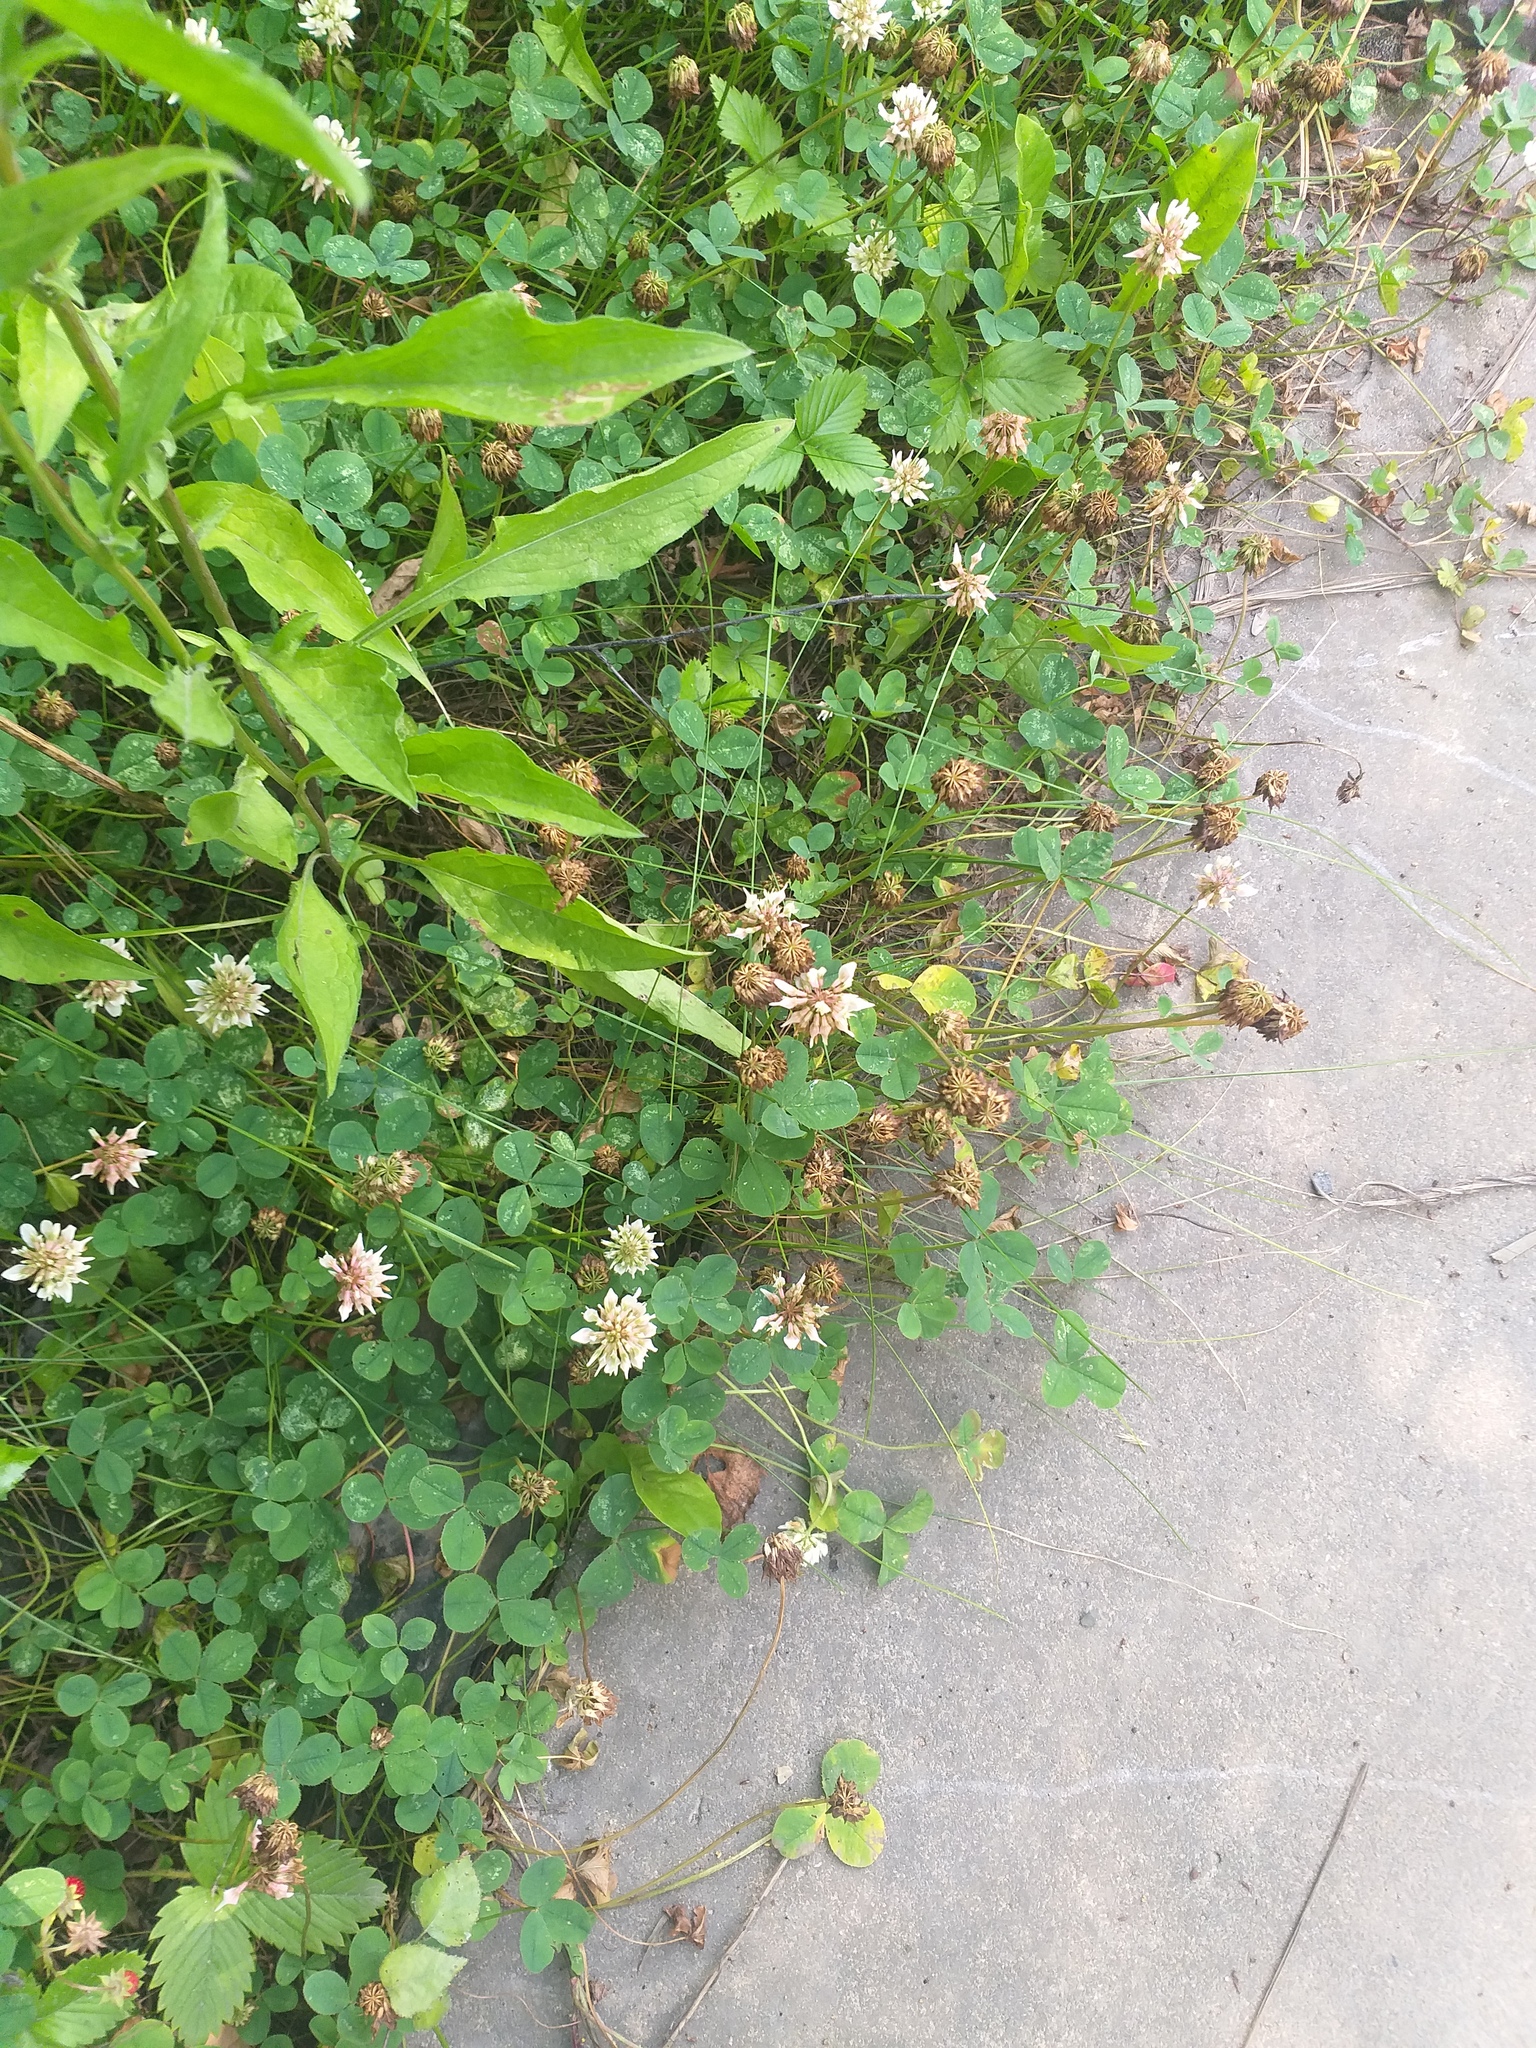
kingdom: Plantae
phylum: Tracheophyta
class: Magnoliopsida
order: Fabales
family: Fabaceae
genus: Trifolium
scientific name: Trifolium repens
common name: White clover
